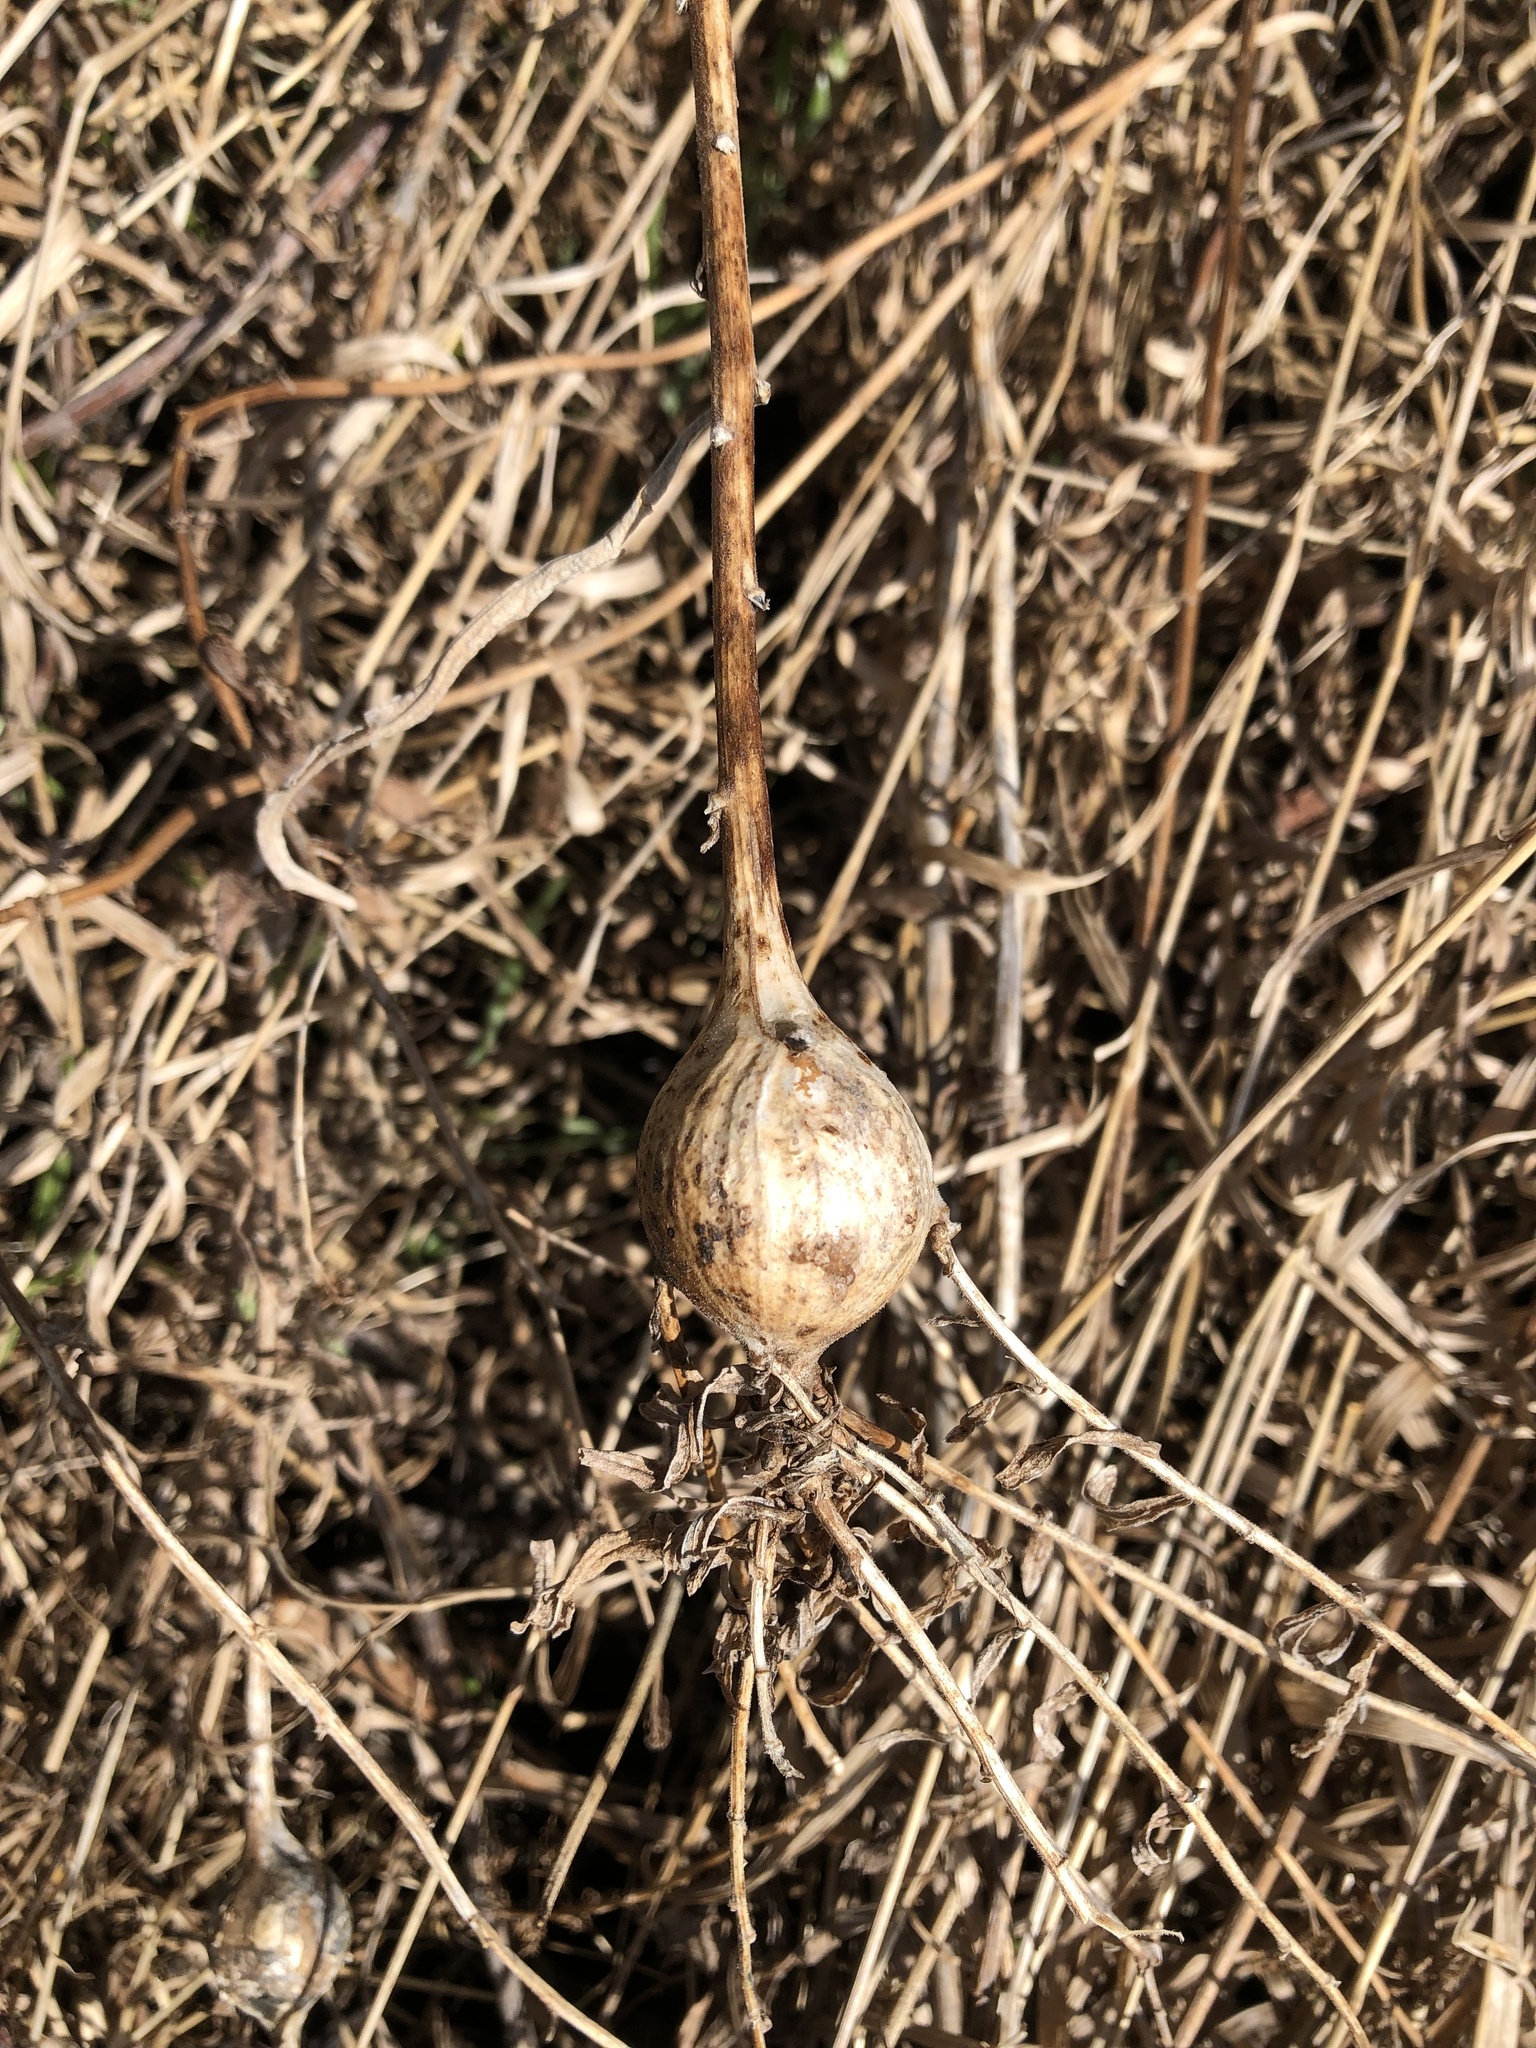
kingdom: Animalia
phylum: Arthropoda
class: Insecta
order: Diptera
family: Tephritidae
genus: Eurosta
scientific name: Eurosta solidaginis
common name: Goldenrod gall fly
